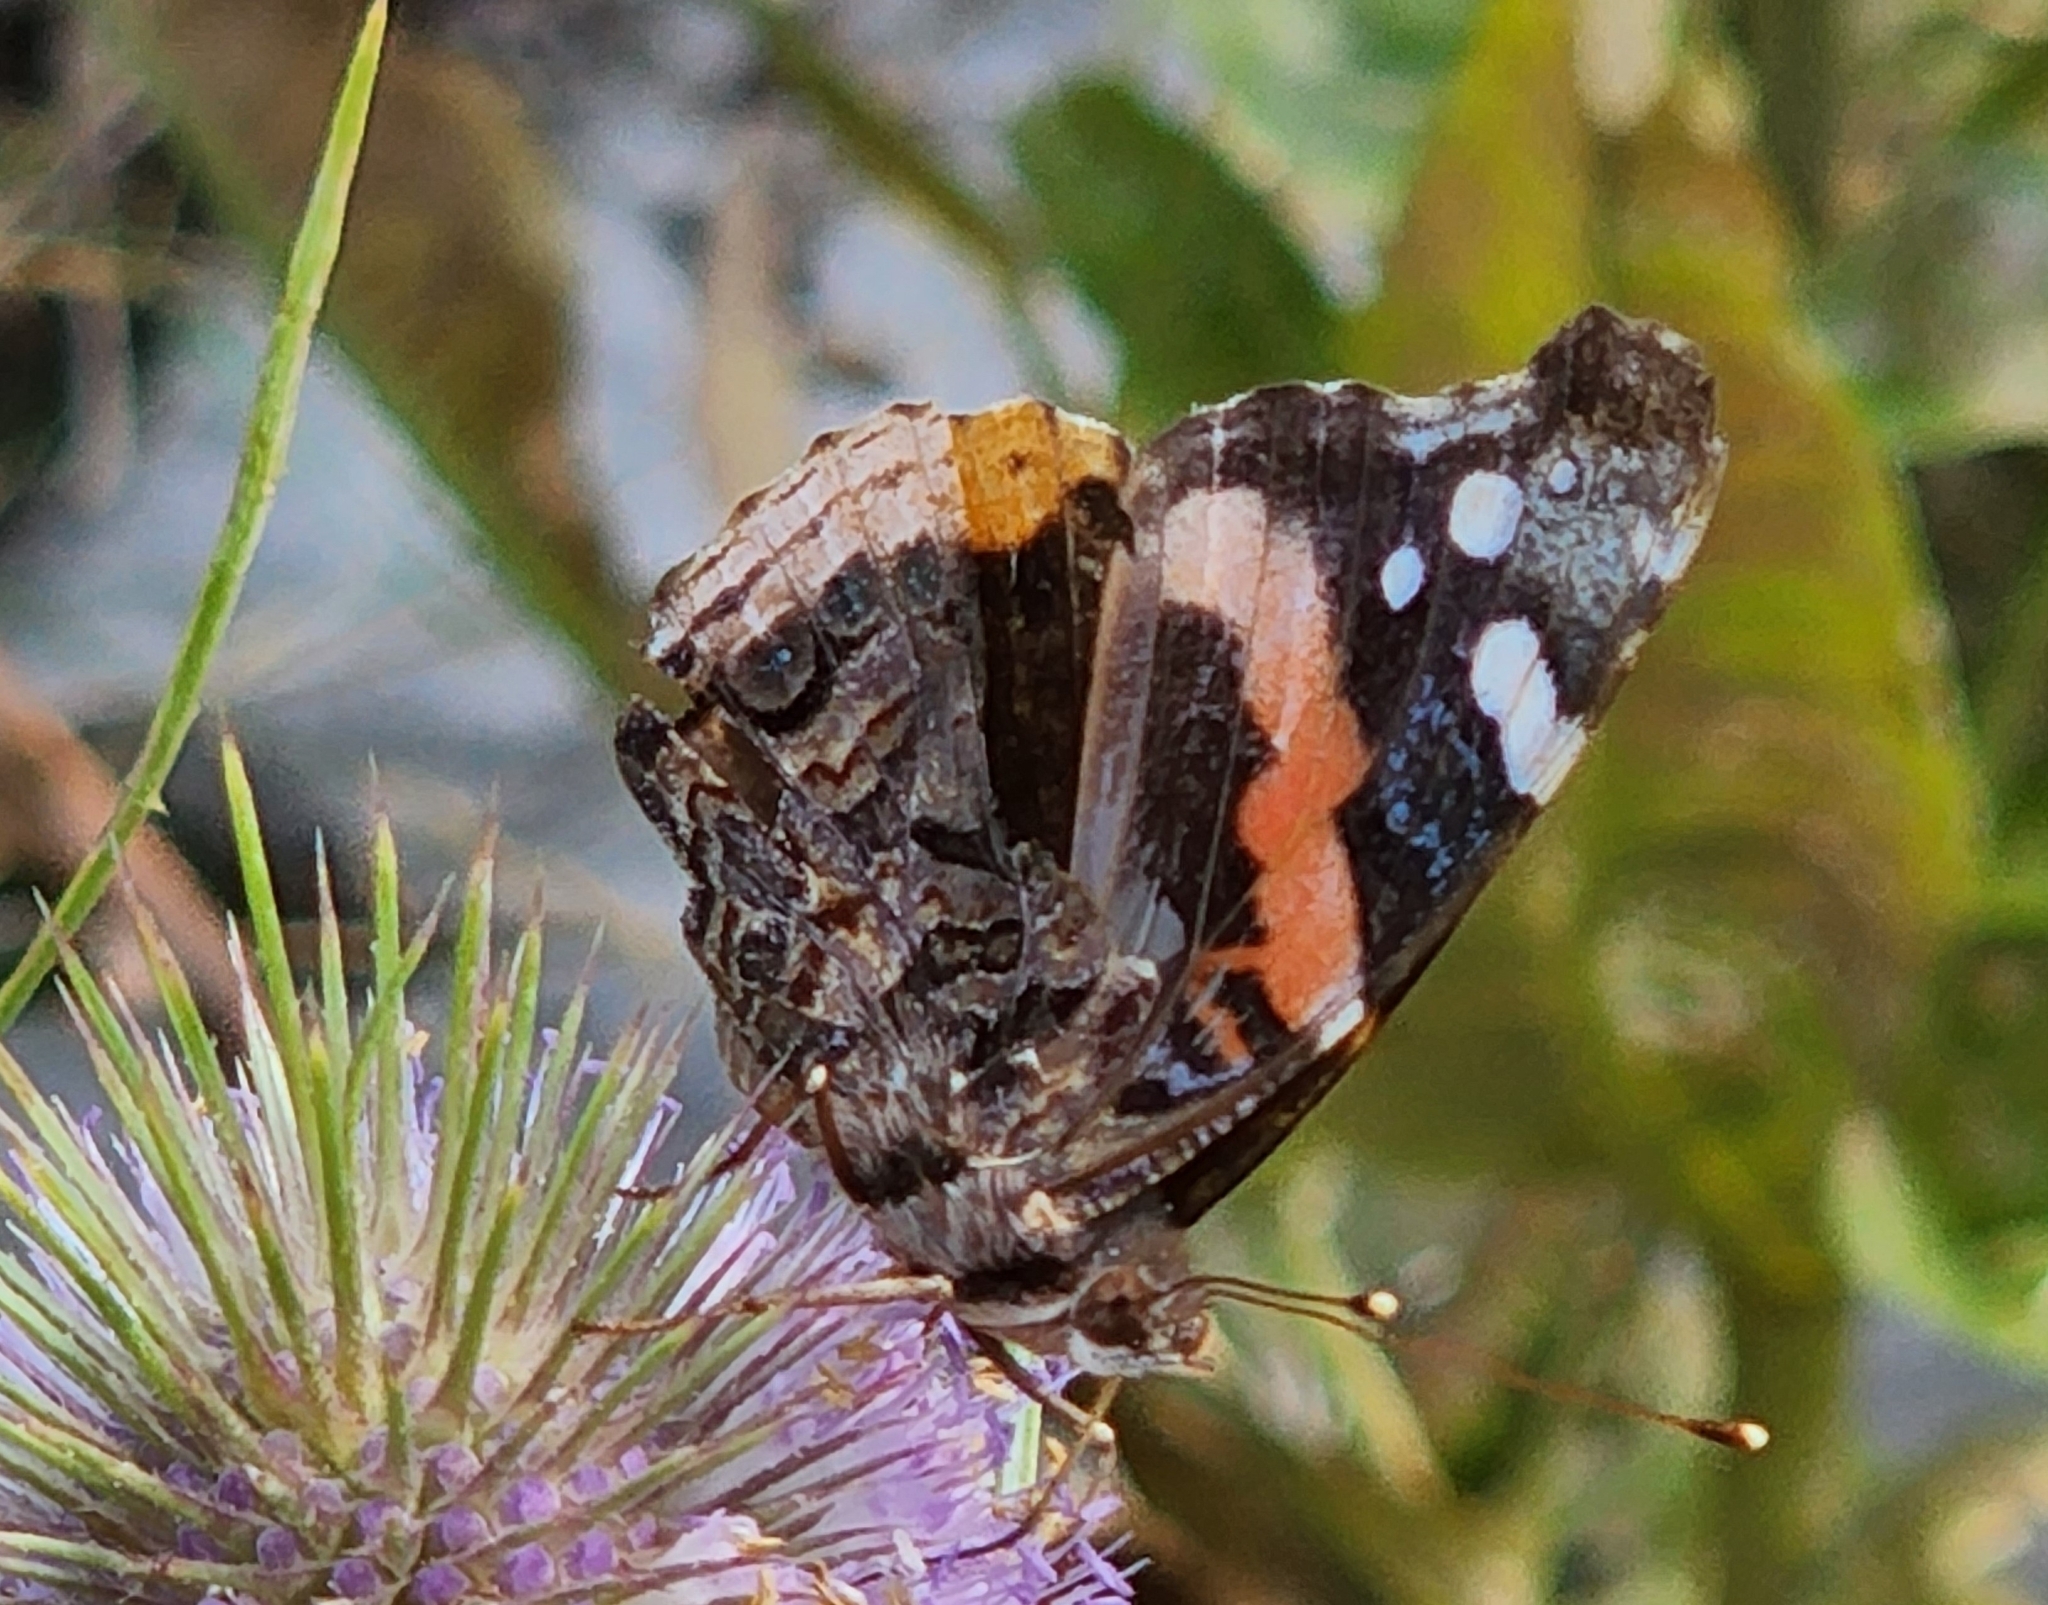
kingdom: Animalia
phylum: Arthropoda
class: Insecta
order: Lepidoptera
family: Nymphalidae
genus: Vanessa
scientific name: Vanessa atalanta
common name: Red admiral
